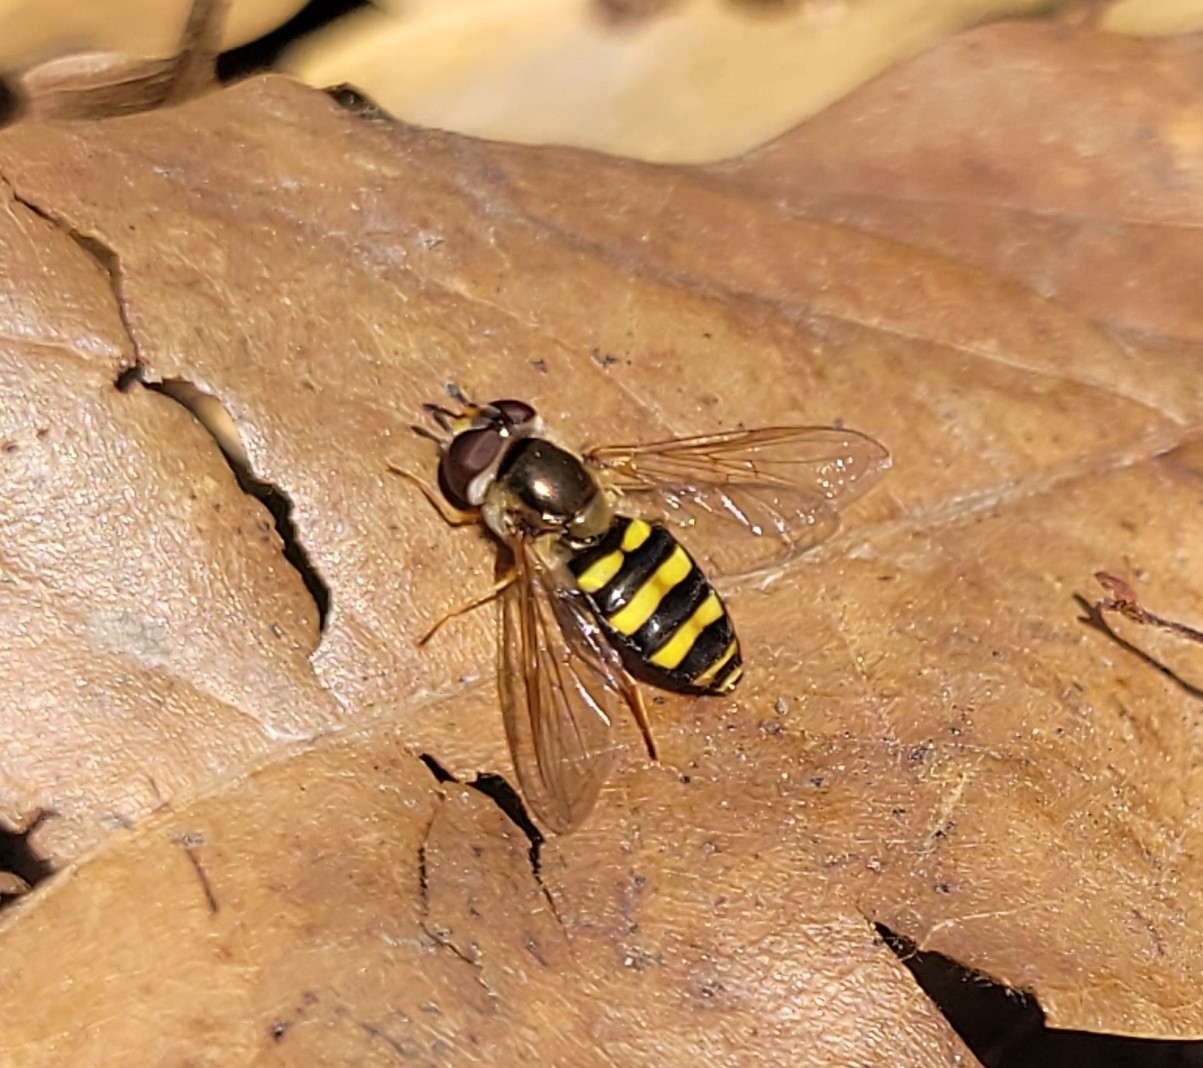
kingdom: Animalia
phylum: Arthropoda
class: Insecta
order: Diptera
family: Syrphidae
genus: Eupeodes
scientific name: Eupeodes
